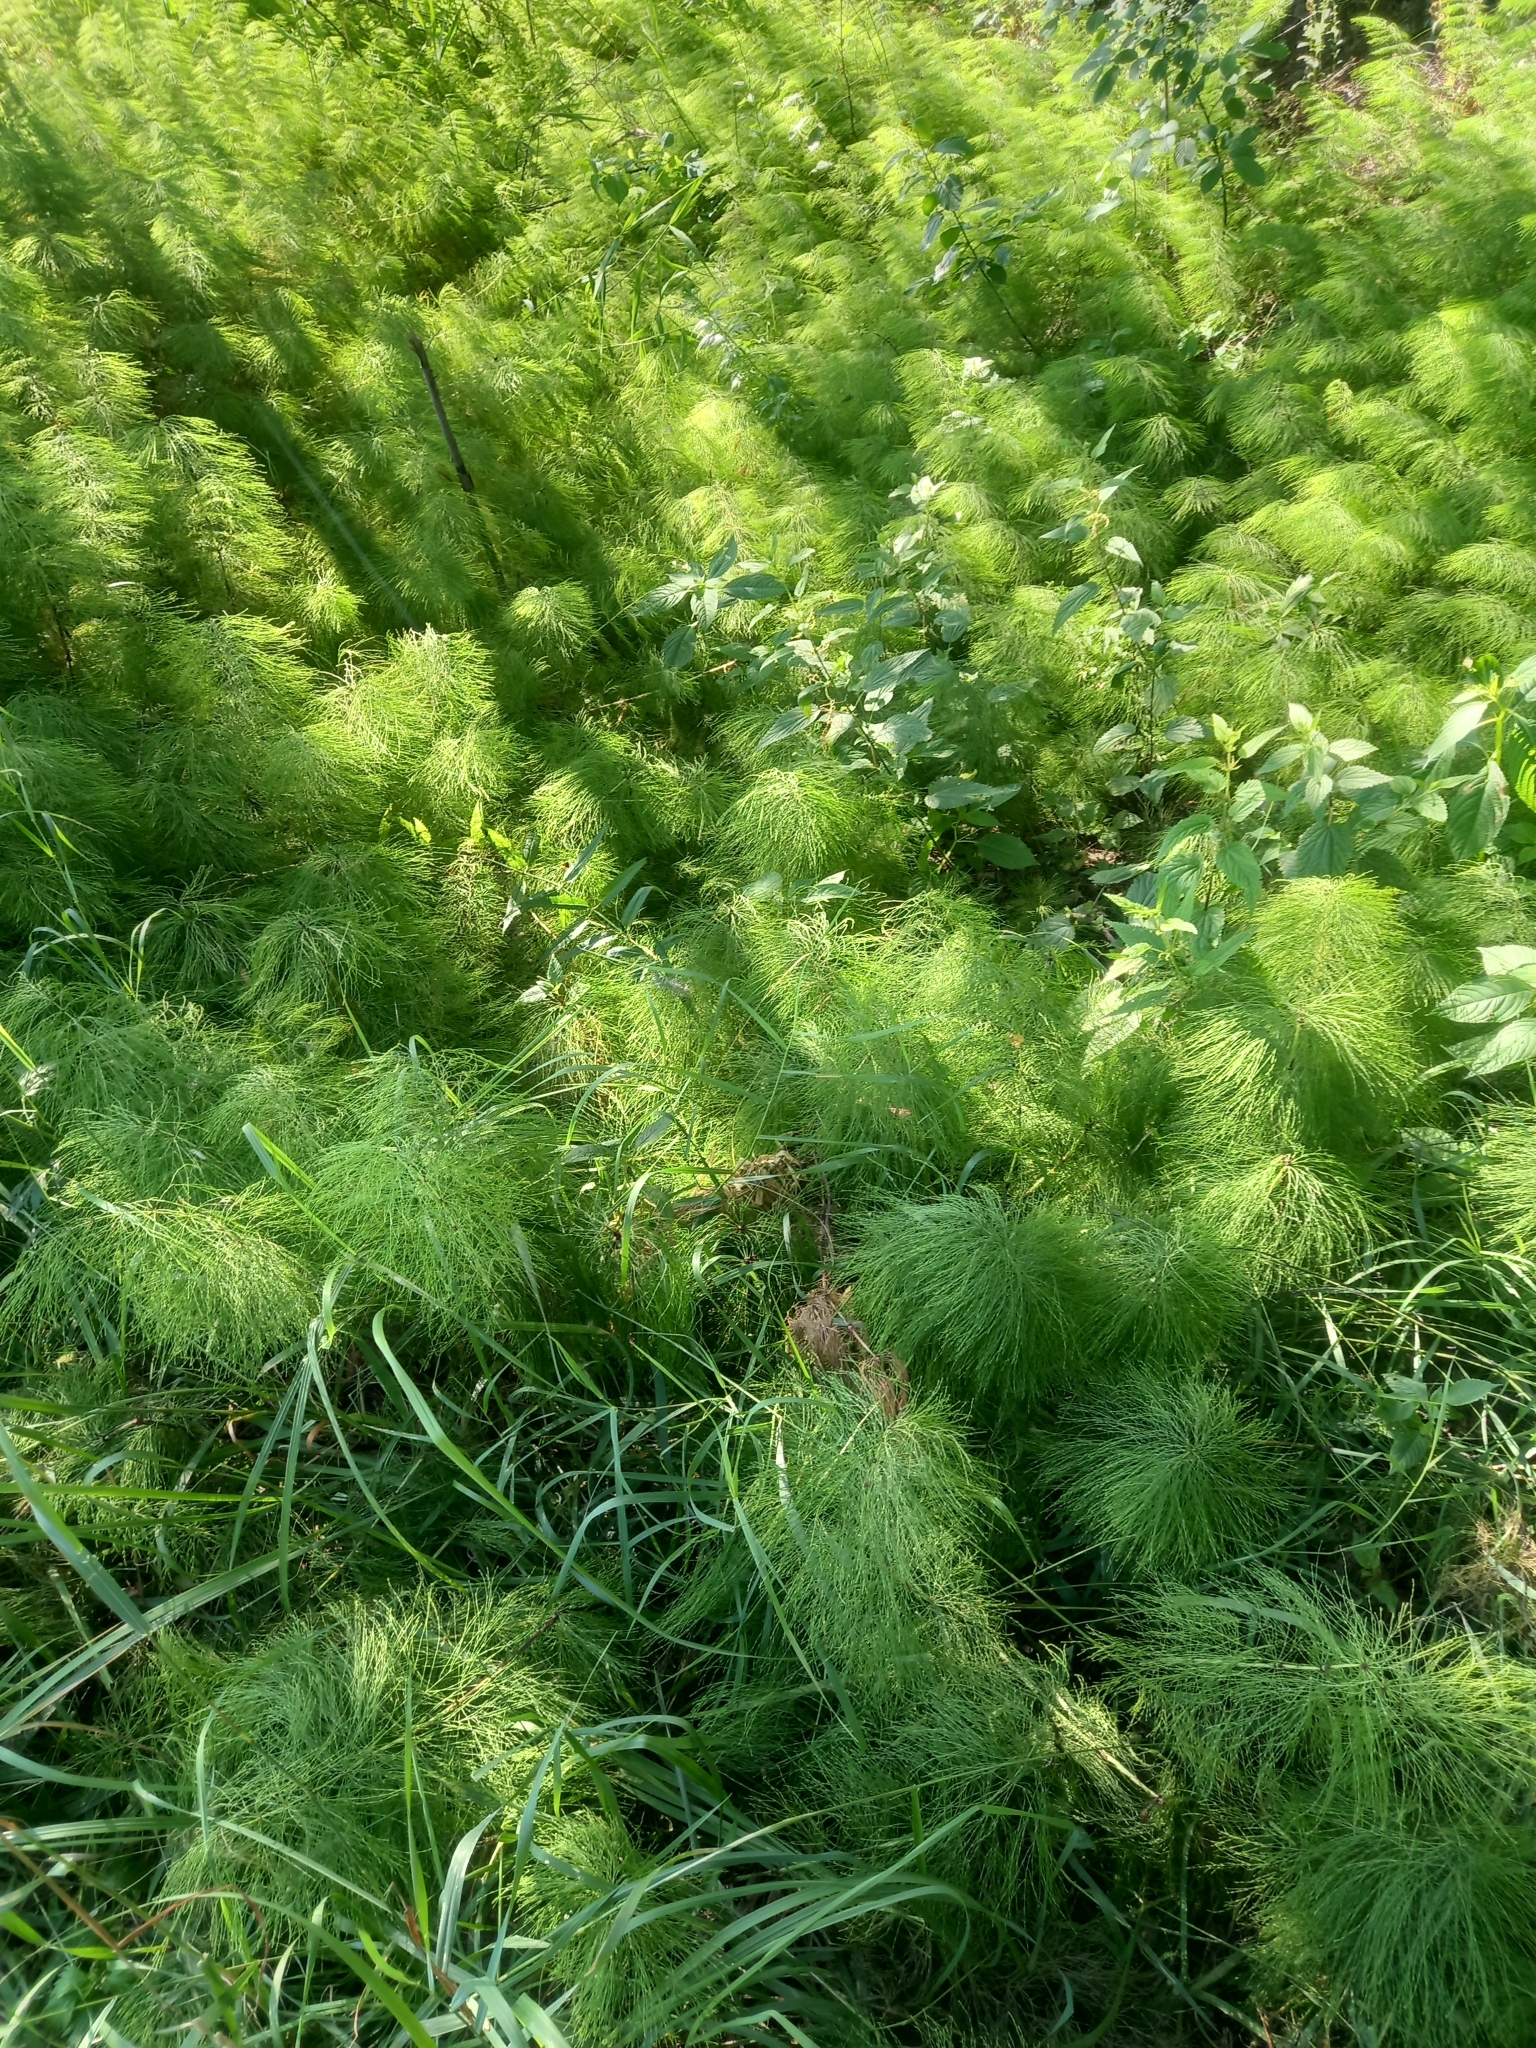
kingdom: Plantae
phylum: Tracheophyta
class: Polypodiopsida
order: Equisetales
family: Equisetaceae
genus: Equisetum
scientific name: Equisetum sylvaticum
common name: Wood horsetail
